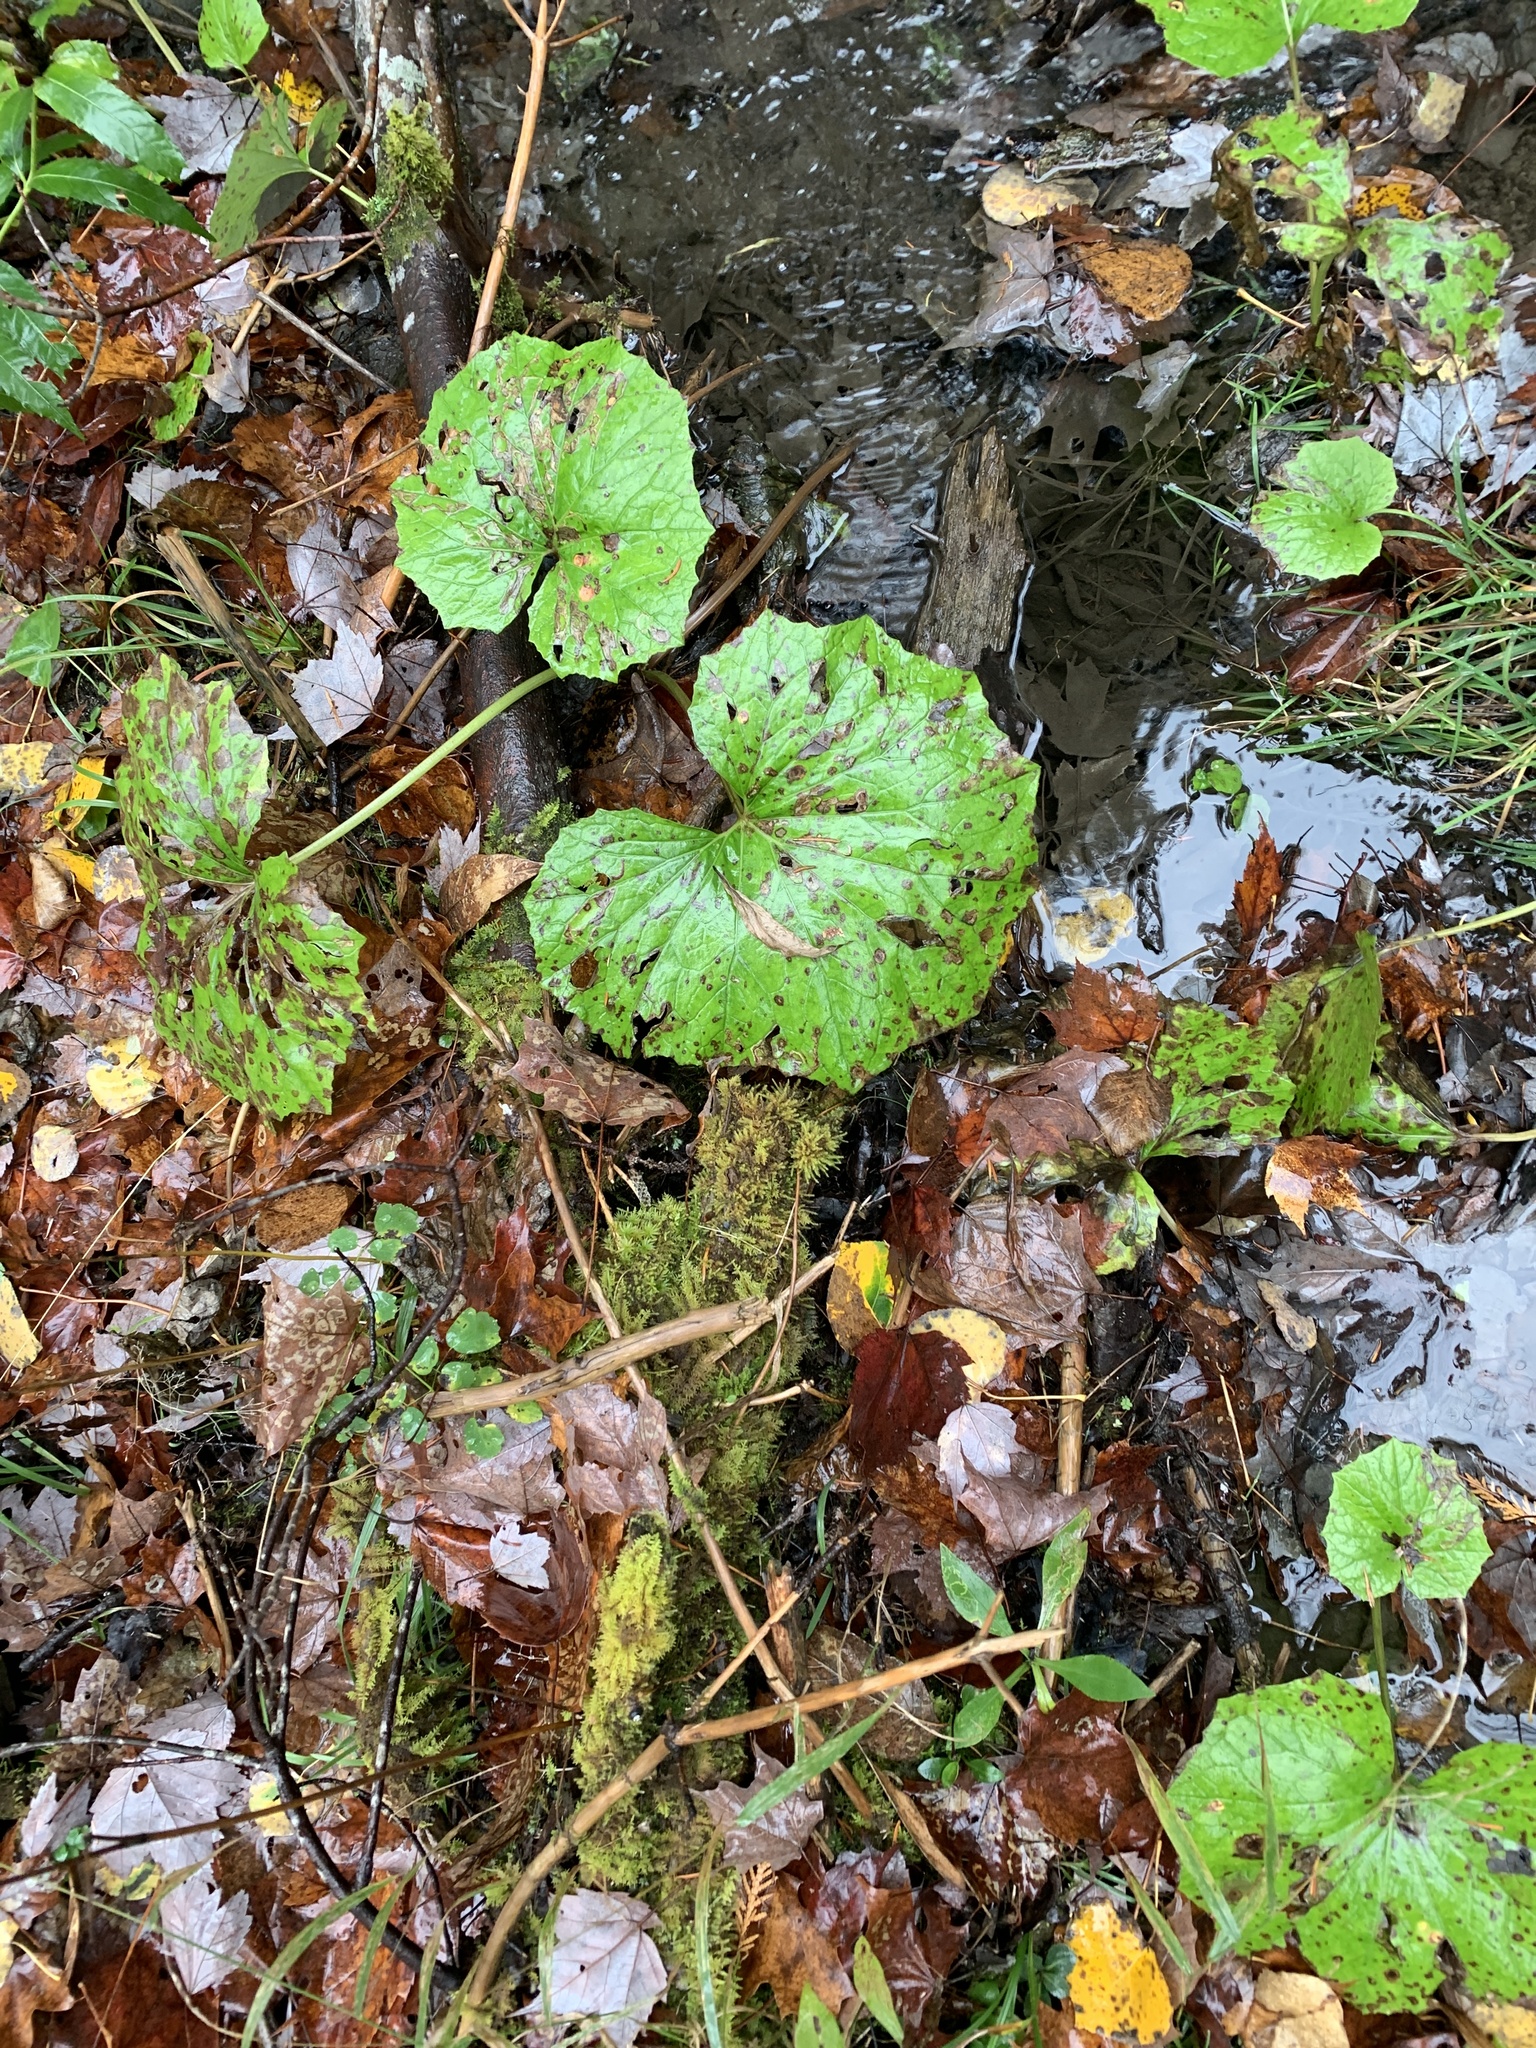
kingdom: Plantae
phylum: Tracheophyta
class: Magnoliopsida
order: Asterales
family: Asteraceae
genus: Tussilago
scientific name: Tussilago farfara
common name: Coltsfoot
